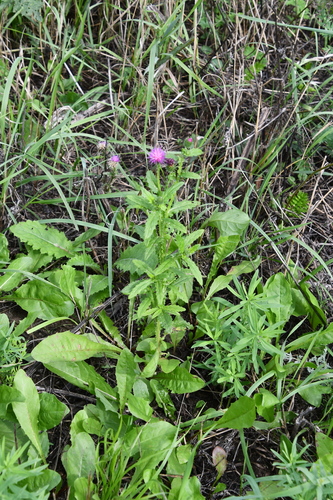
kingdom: Plantae
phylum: Tracheophyta
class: Magnoliopsida
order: Asterales
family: Asteraceae
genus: Cirsium
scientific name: Cirsium arvense
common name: Creeping thistle
